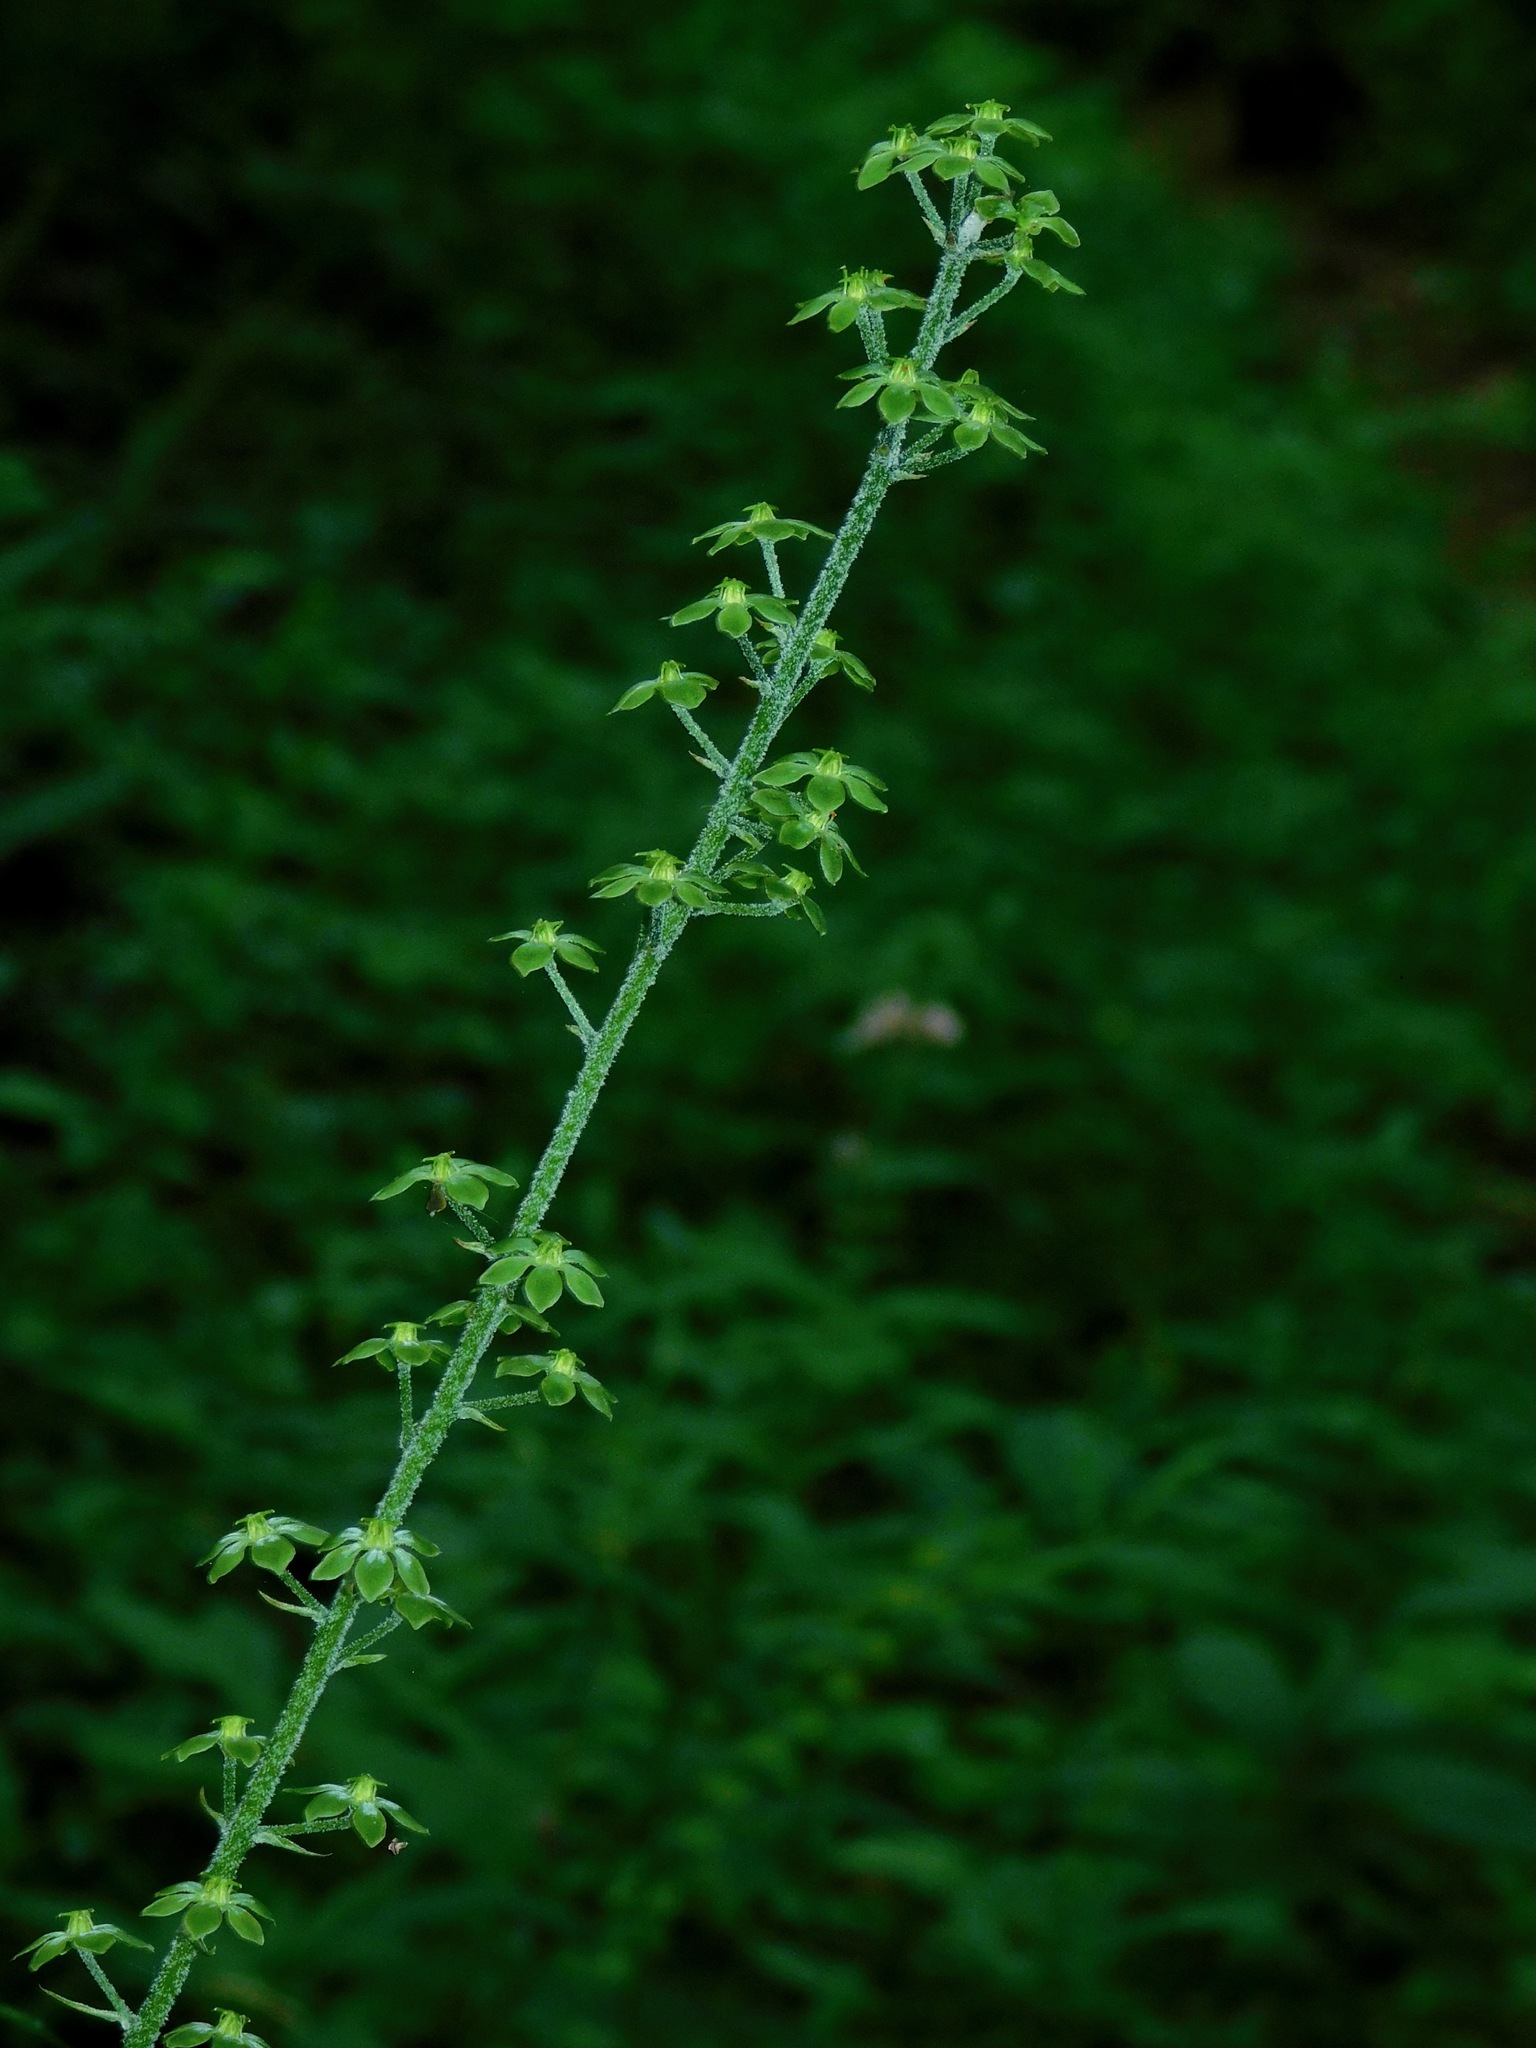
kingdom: Plantae
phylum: Tracheophyta
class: Liliopsida
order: Liliales
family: Melanthiaceae
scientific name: Melanthiaceae
